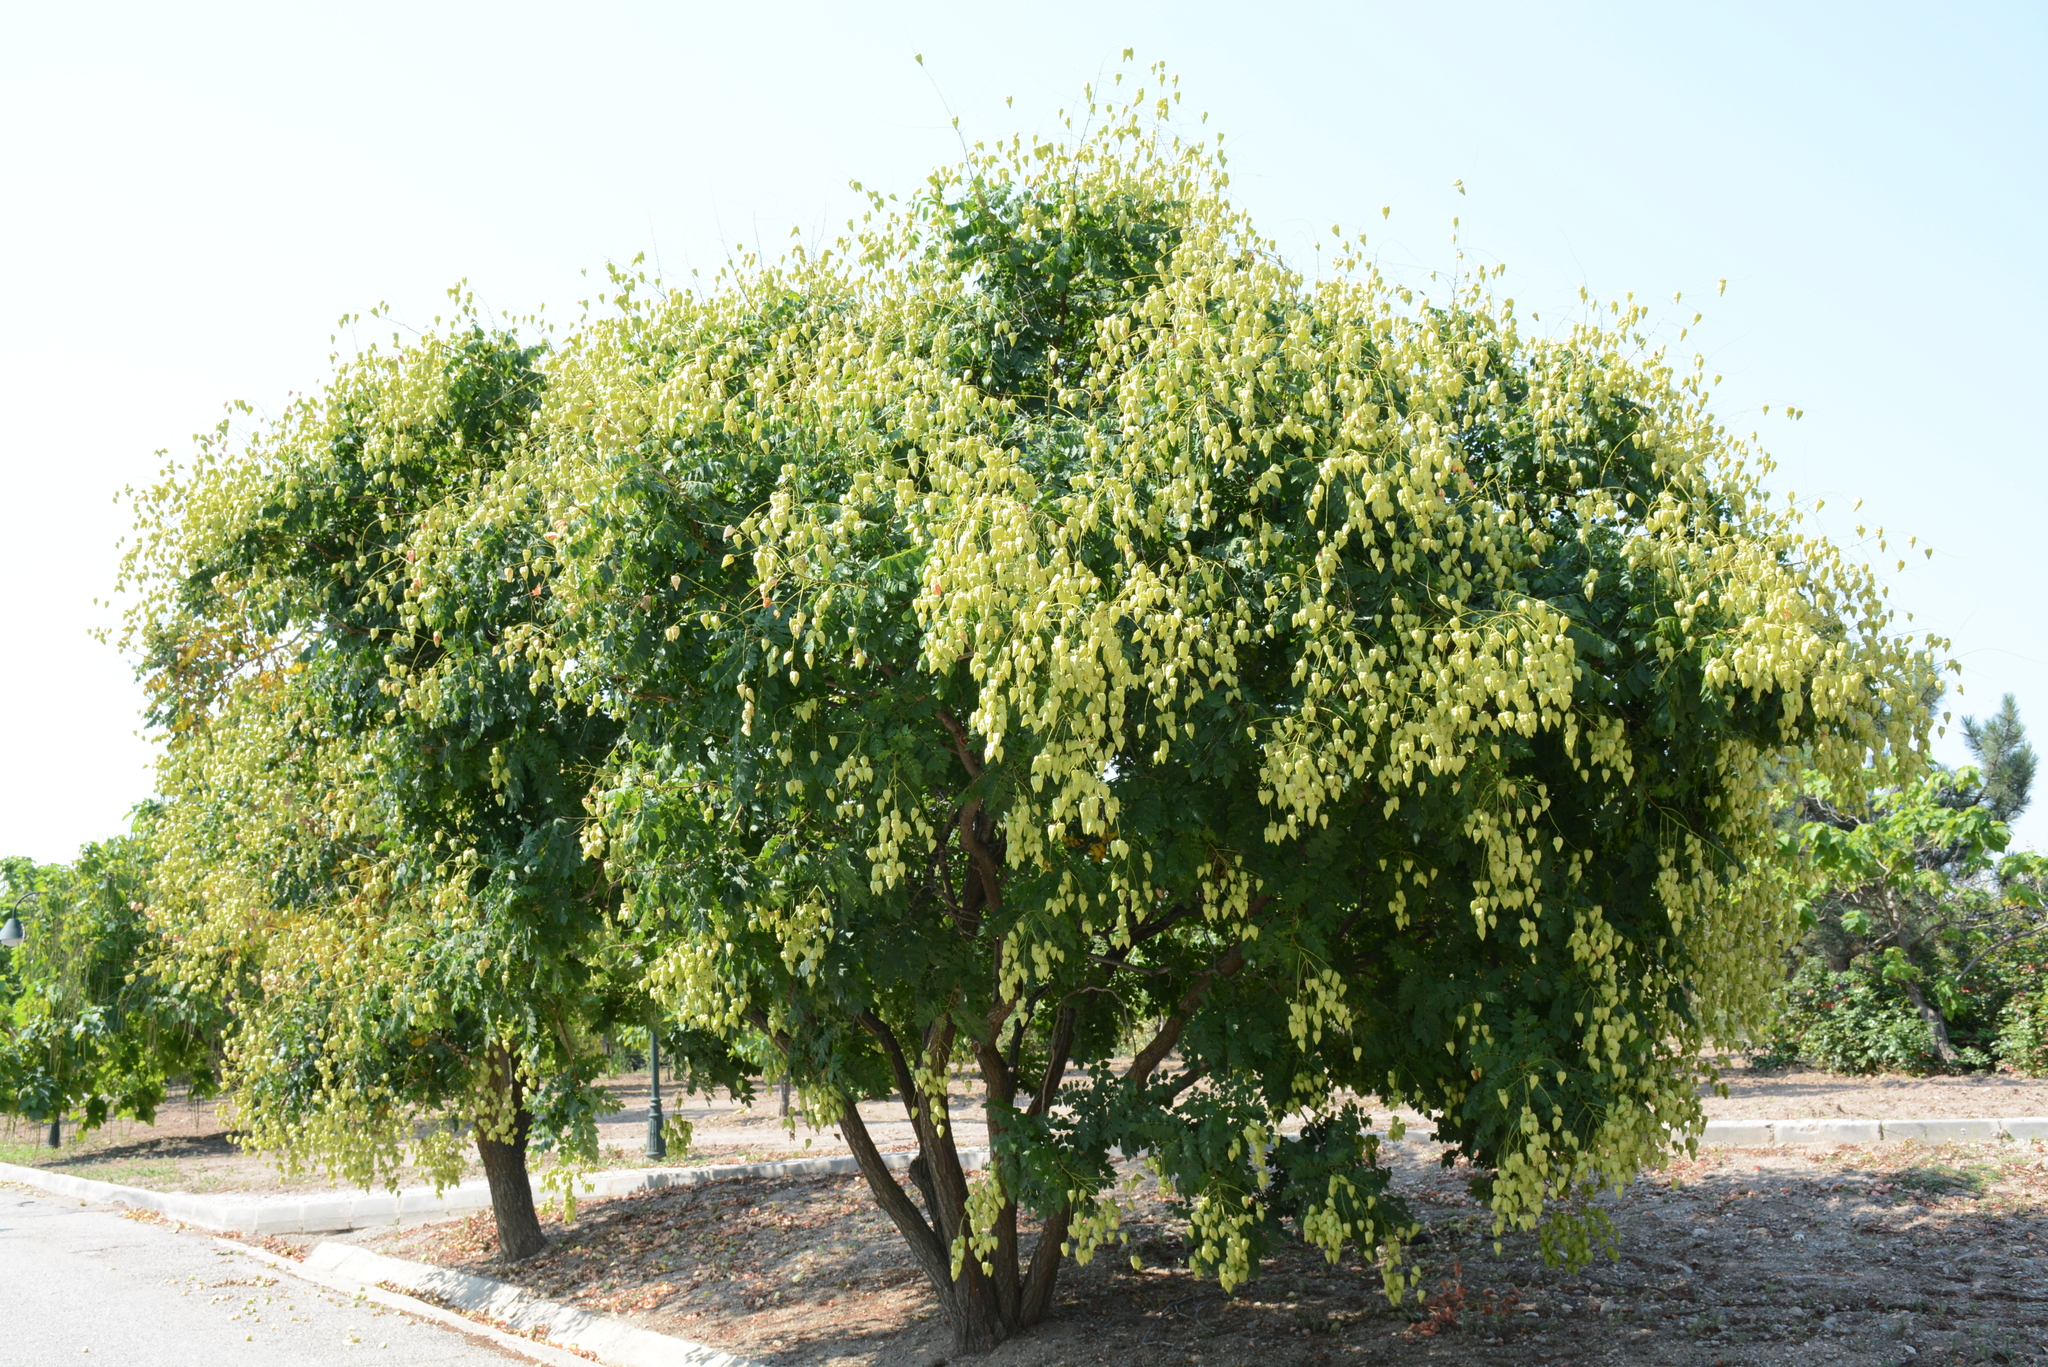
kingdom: Plantae
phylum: Tracheophyta
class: Magnoliopsida
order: Sapindales
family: Sapindaceae
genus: Koelreuteria
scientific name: Koelreuteria paniculata
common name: Pride-of-india
